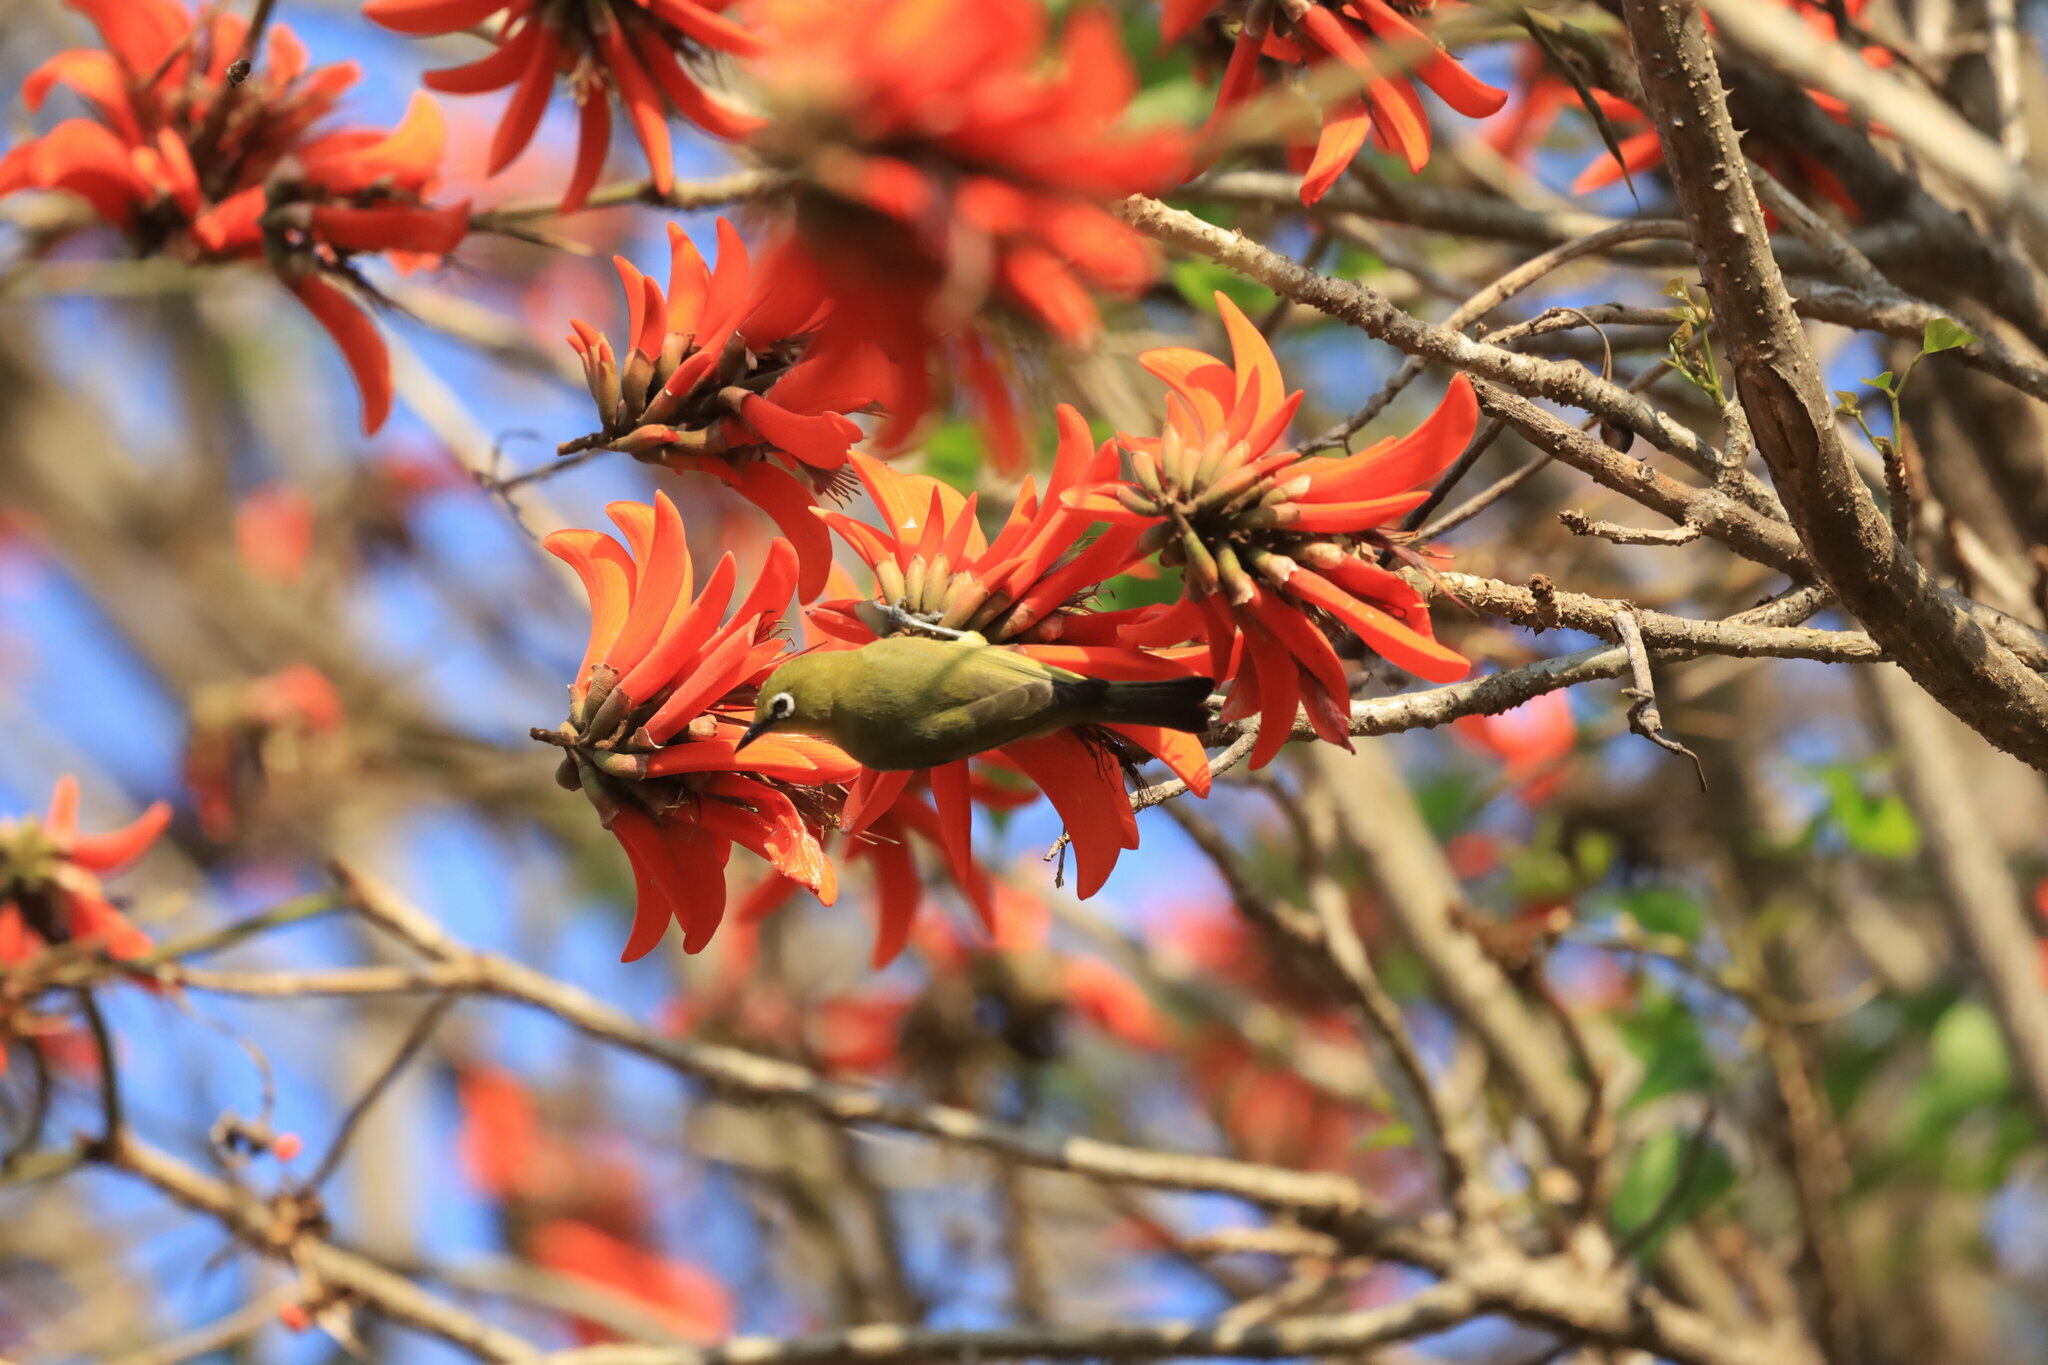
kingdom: Animalia
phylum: Chordata
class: Aves
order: Passeriformes
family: Zosteropidae
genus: Zosterops
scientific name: Zosterops virens
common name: Cape white-eye
